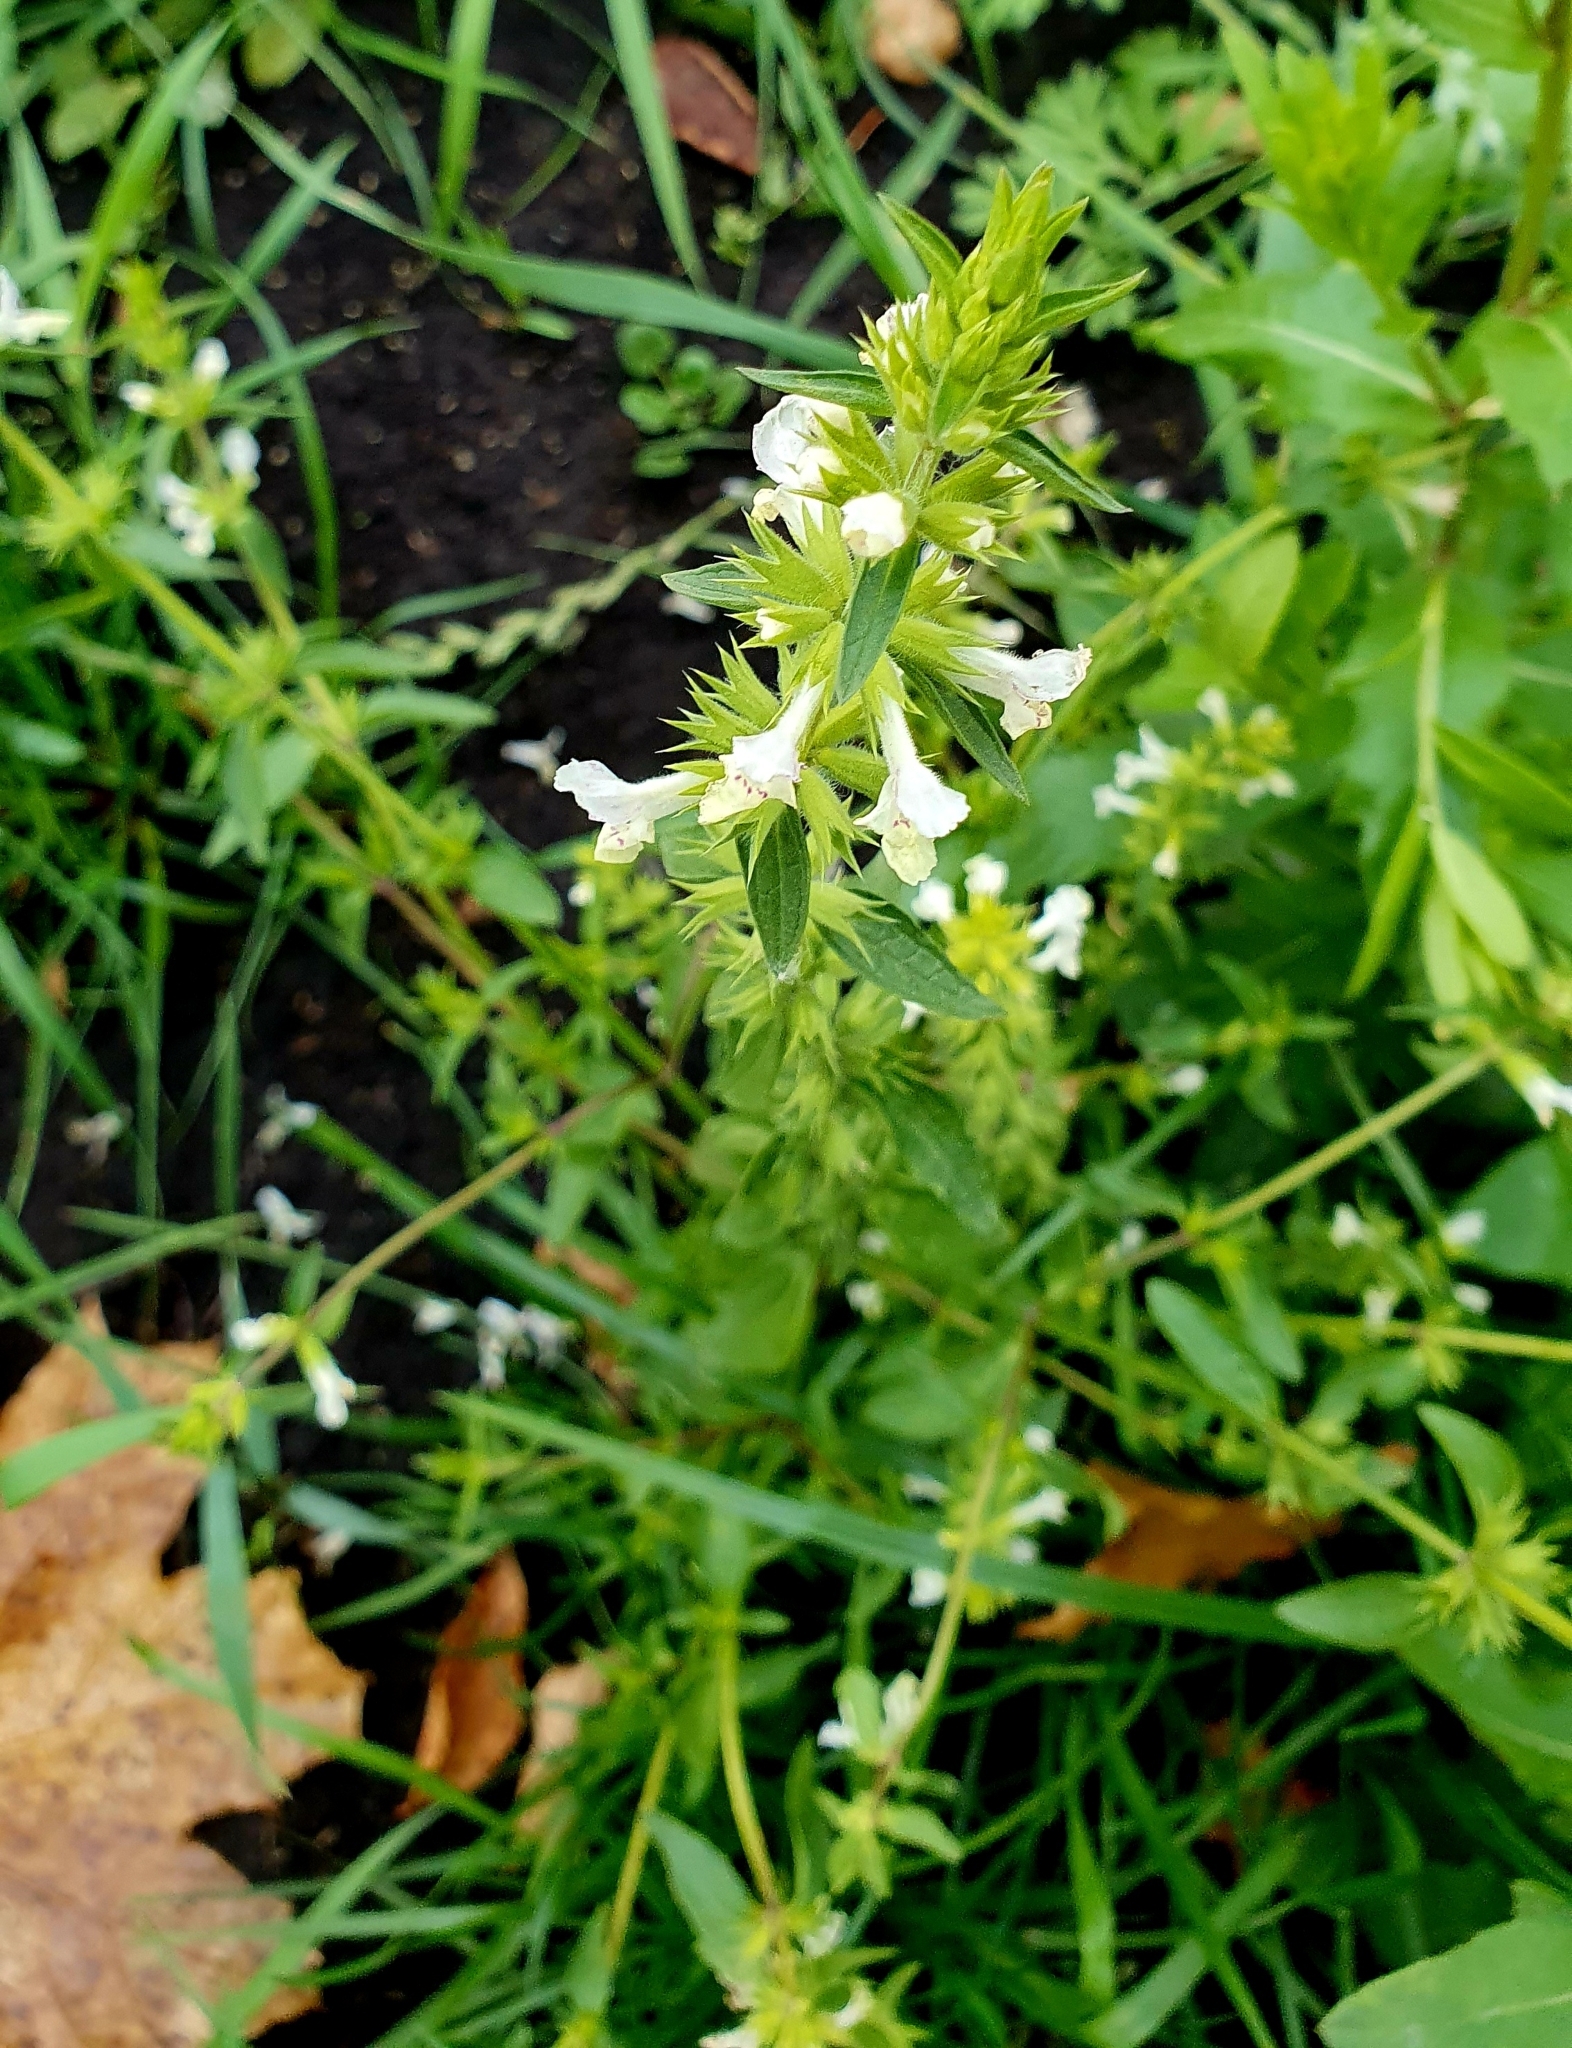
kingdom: Plantae
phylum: Tracheophyta
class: Magnoliopsida
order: Lamiales
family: Lamiaceae
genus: Stachys
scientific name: Stachys annua
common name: Annual yellow-woundwort
